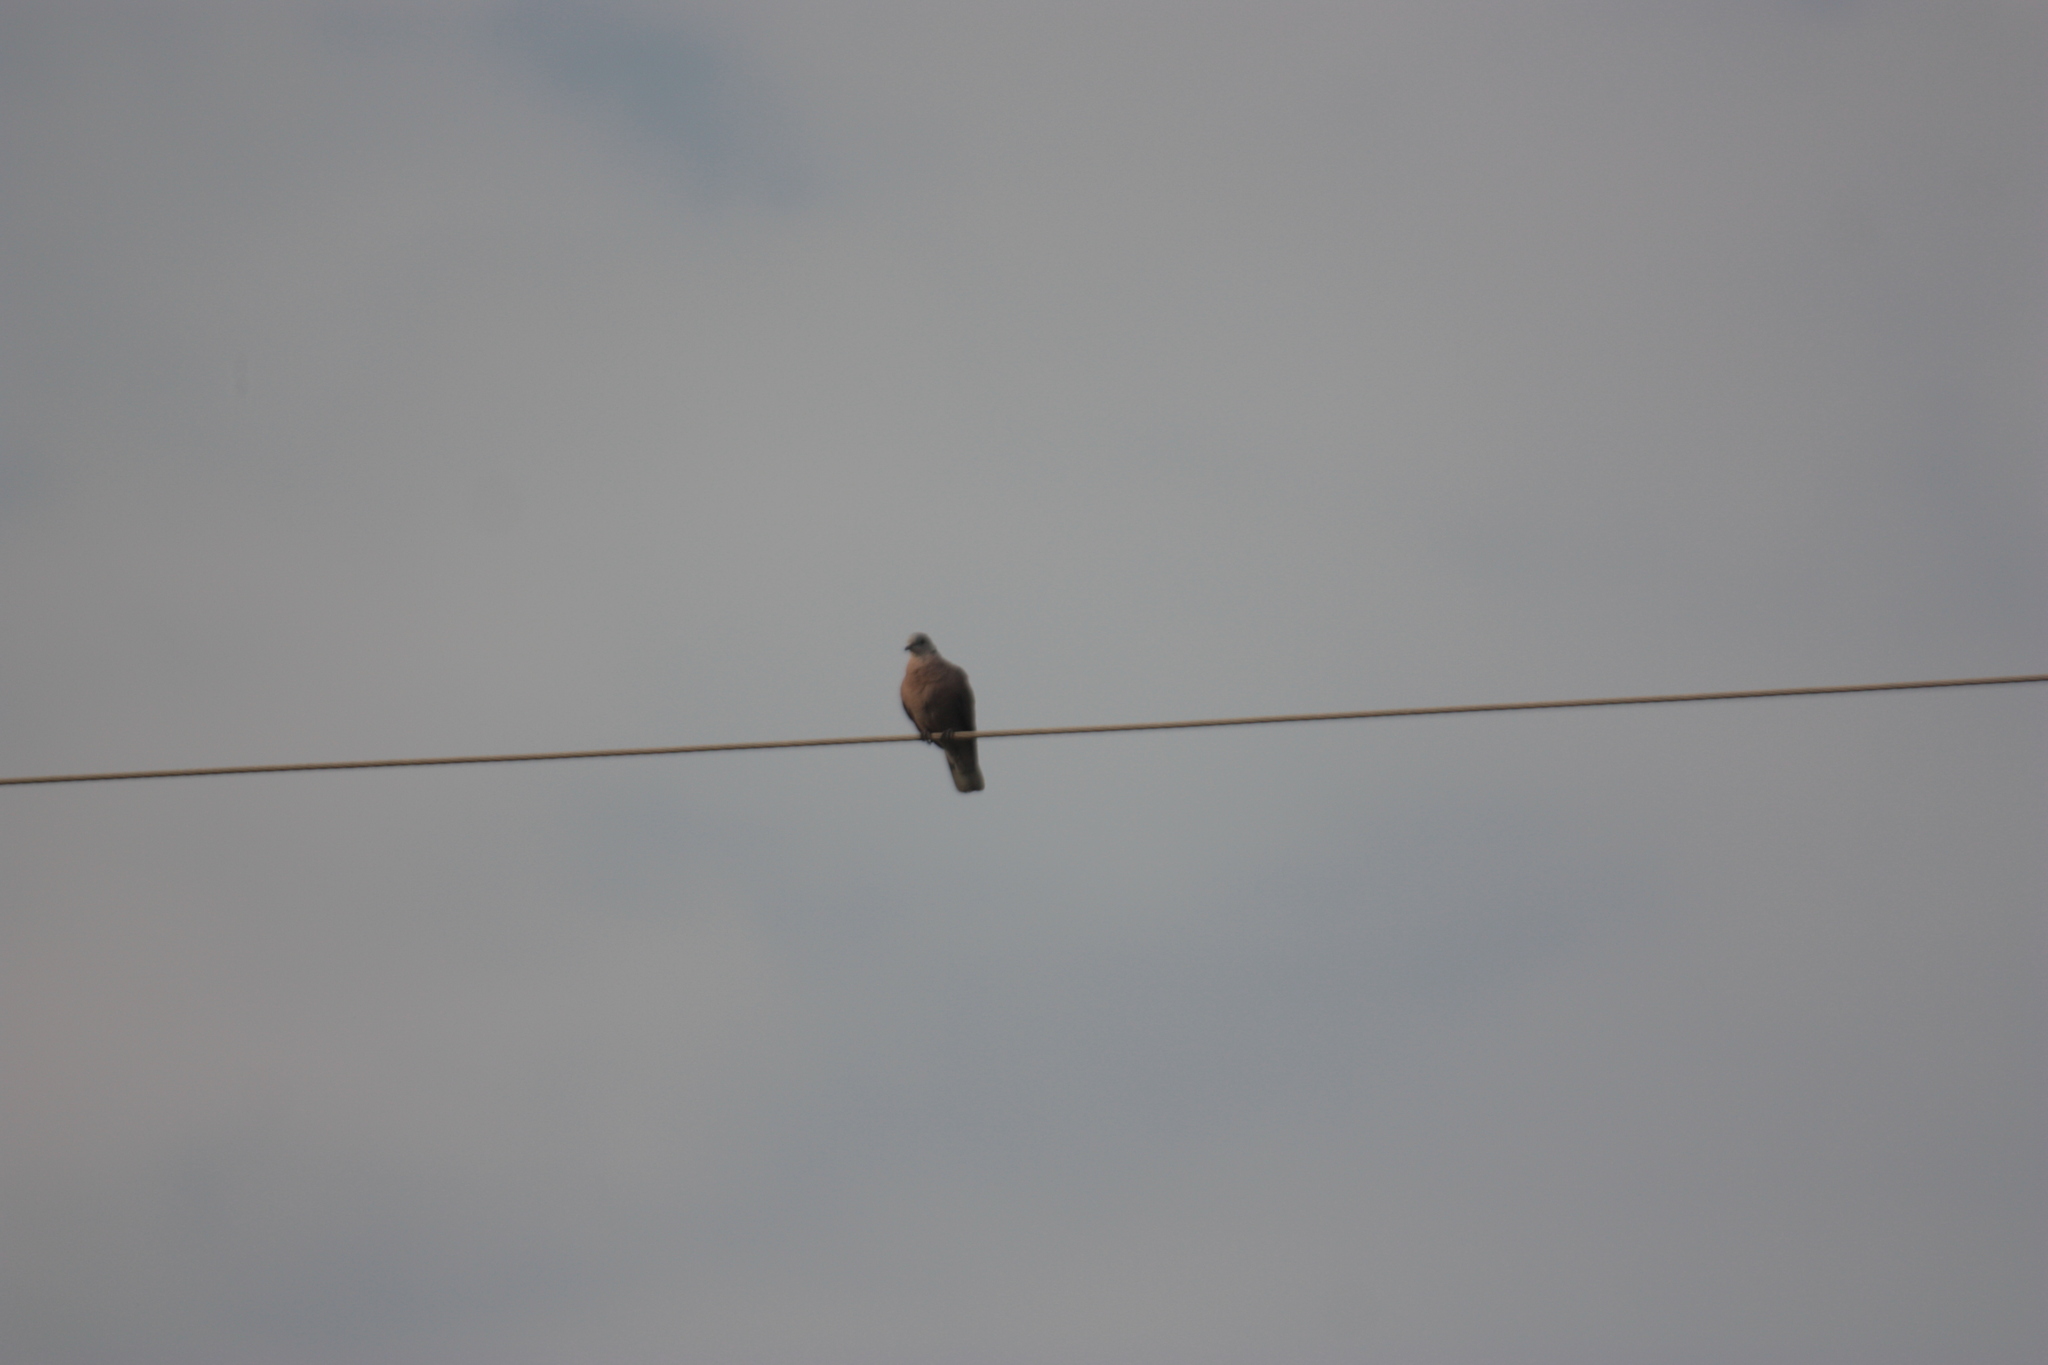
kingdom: Animalia
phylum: Chordata
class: Aves
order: Columbiformes
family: Columbidae
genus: Streptopelia
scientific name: Streptopelia tranquebarica
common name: Red turtle dove
